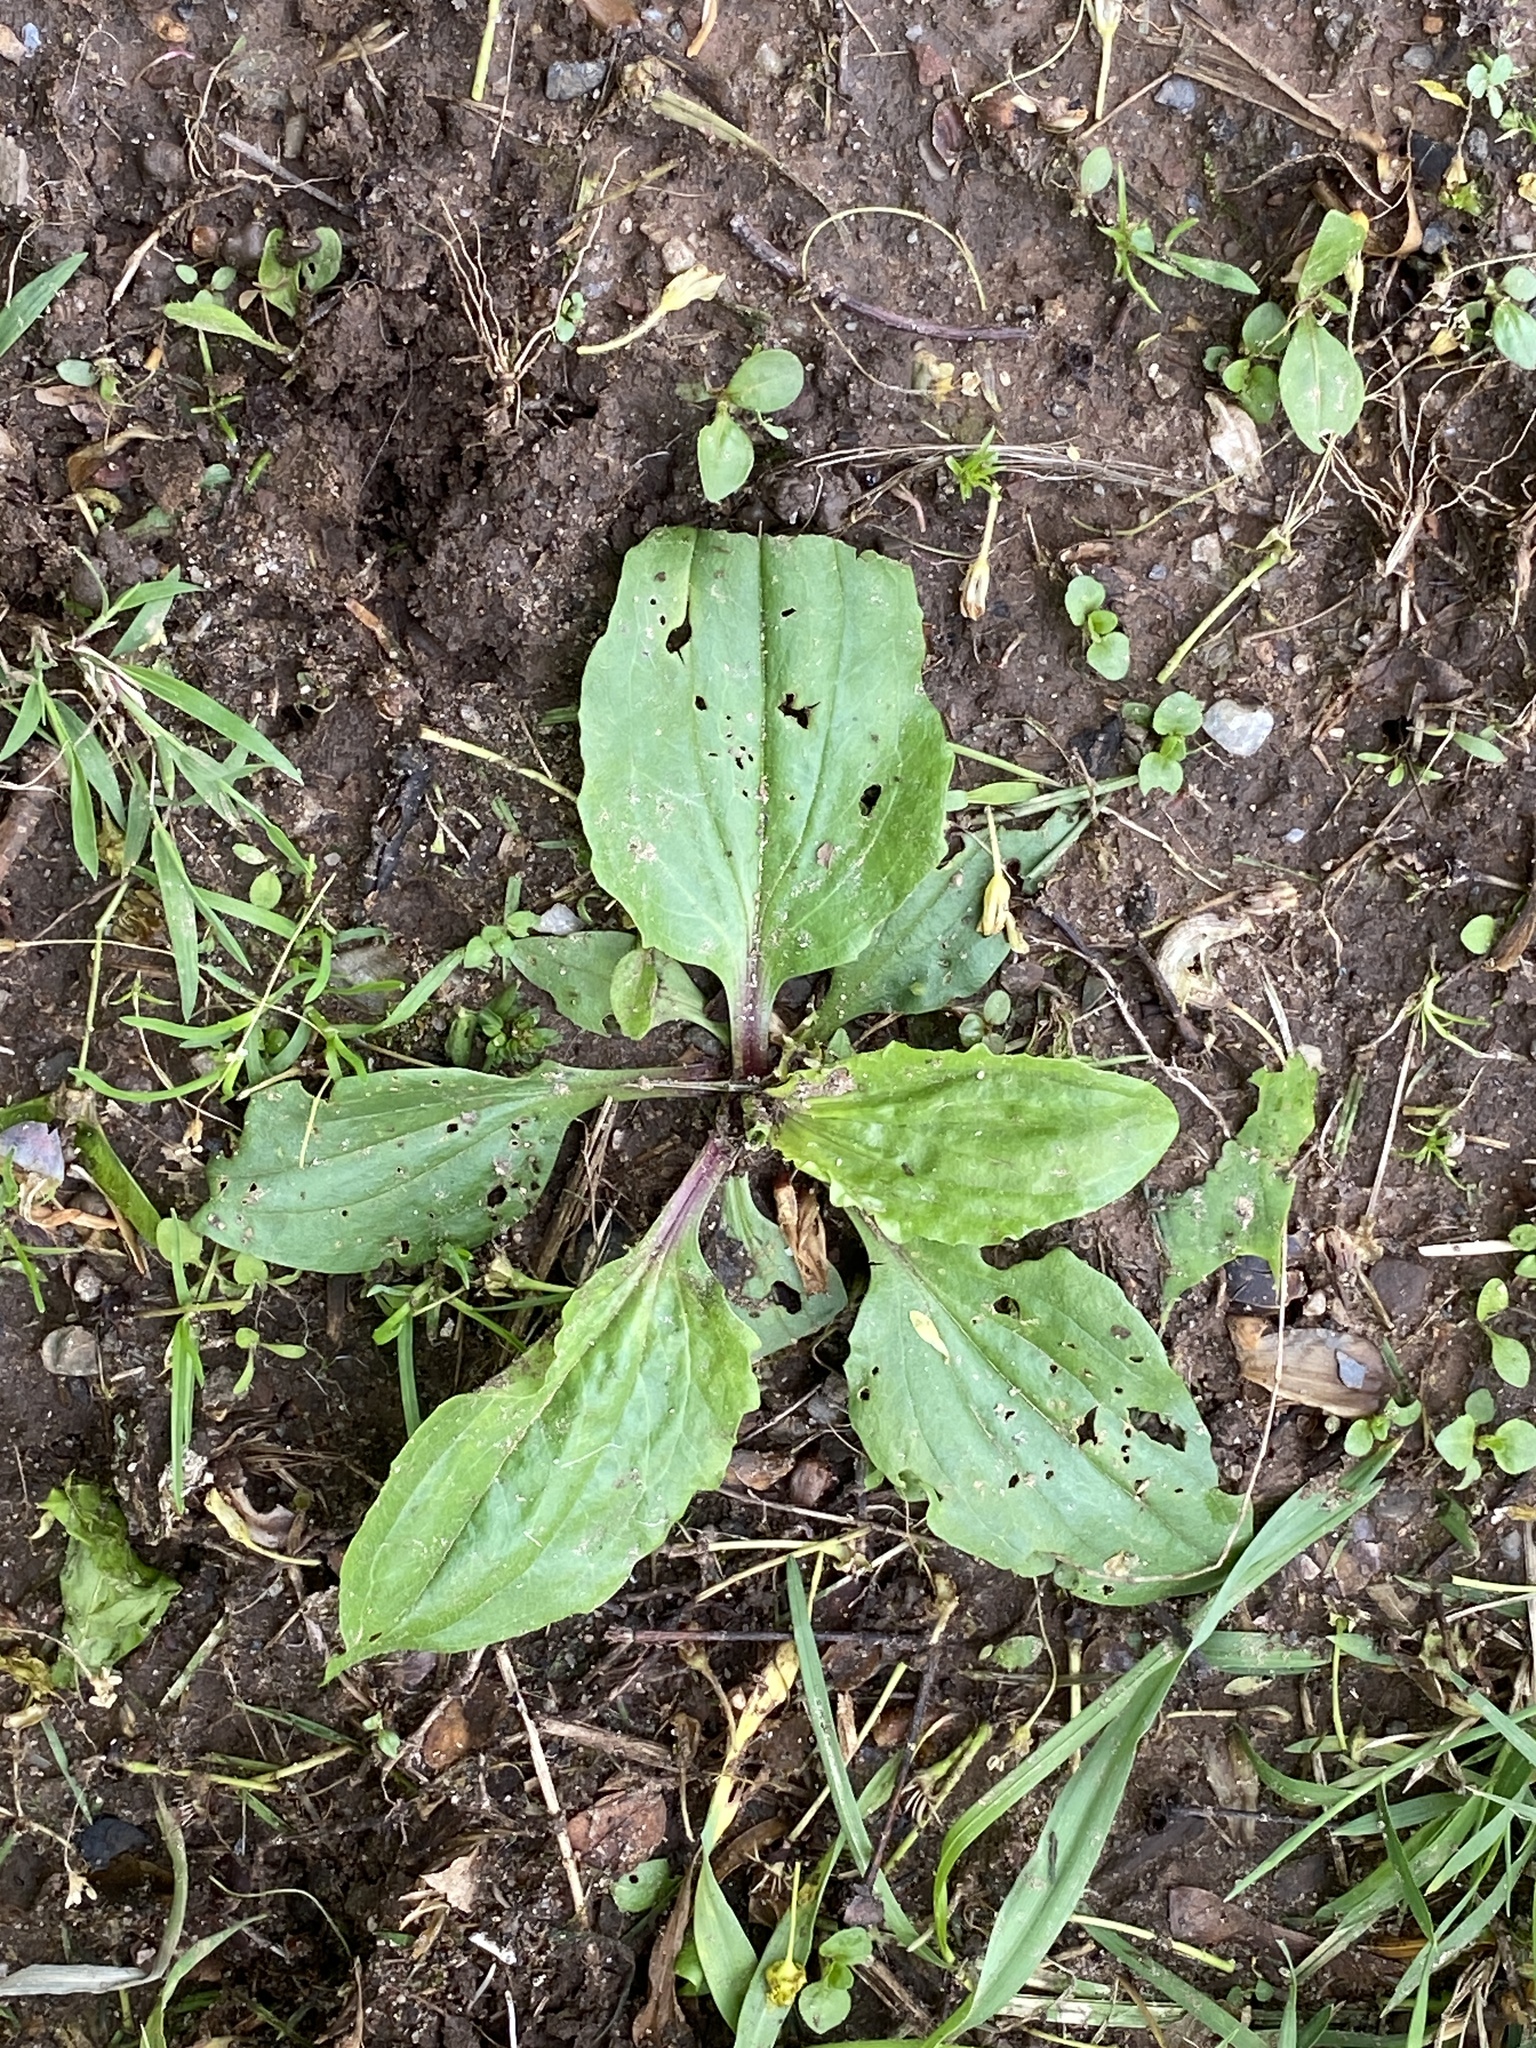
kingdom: Plantae
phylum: Tracheophyta
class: Magnoliopsida
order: Lamiales
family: Plantaginaceae
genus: Plantago
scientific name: Plantago rugelii
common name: American plantain
